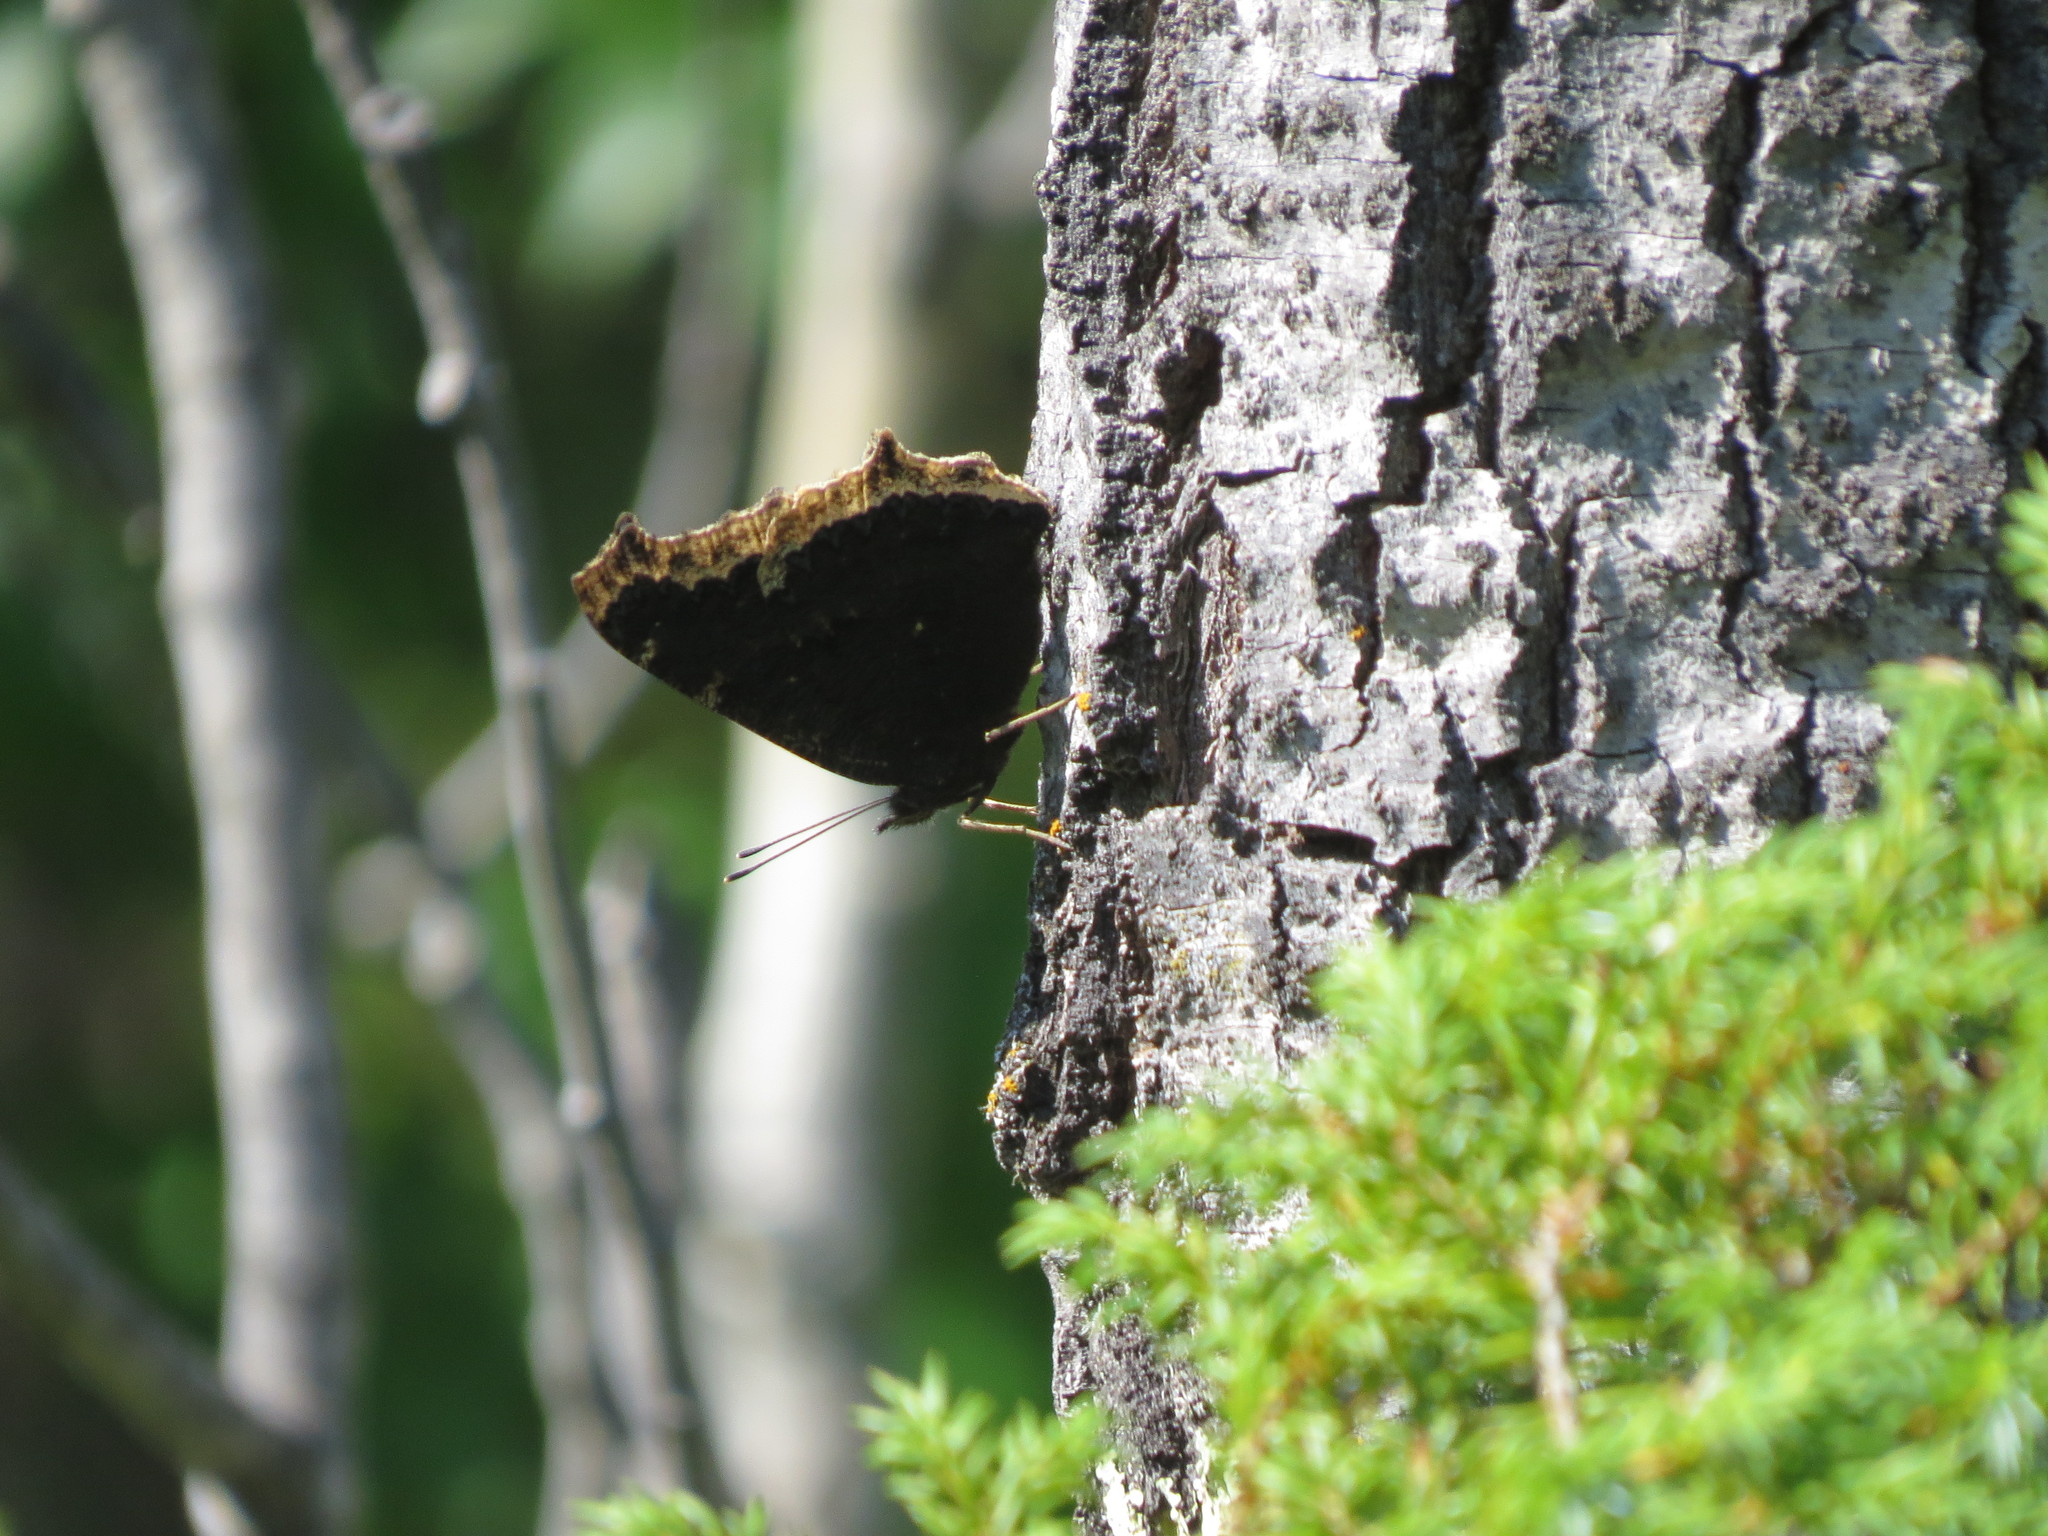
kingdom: Animalia
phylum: Arthropoda
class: Insecta
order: Lepidoptera
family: Nymphalidae
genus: Nymphalis
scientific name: Nymphalis antiopa
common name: Camberwell beauty
